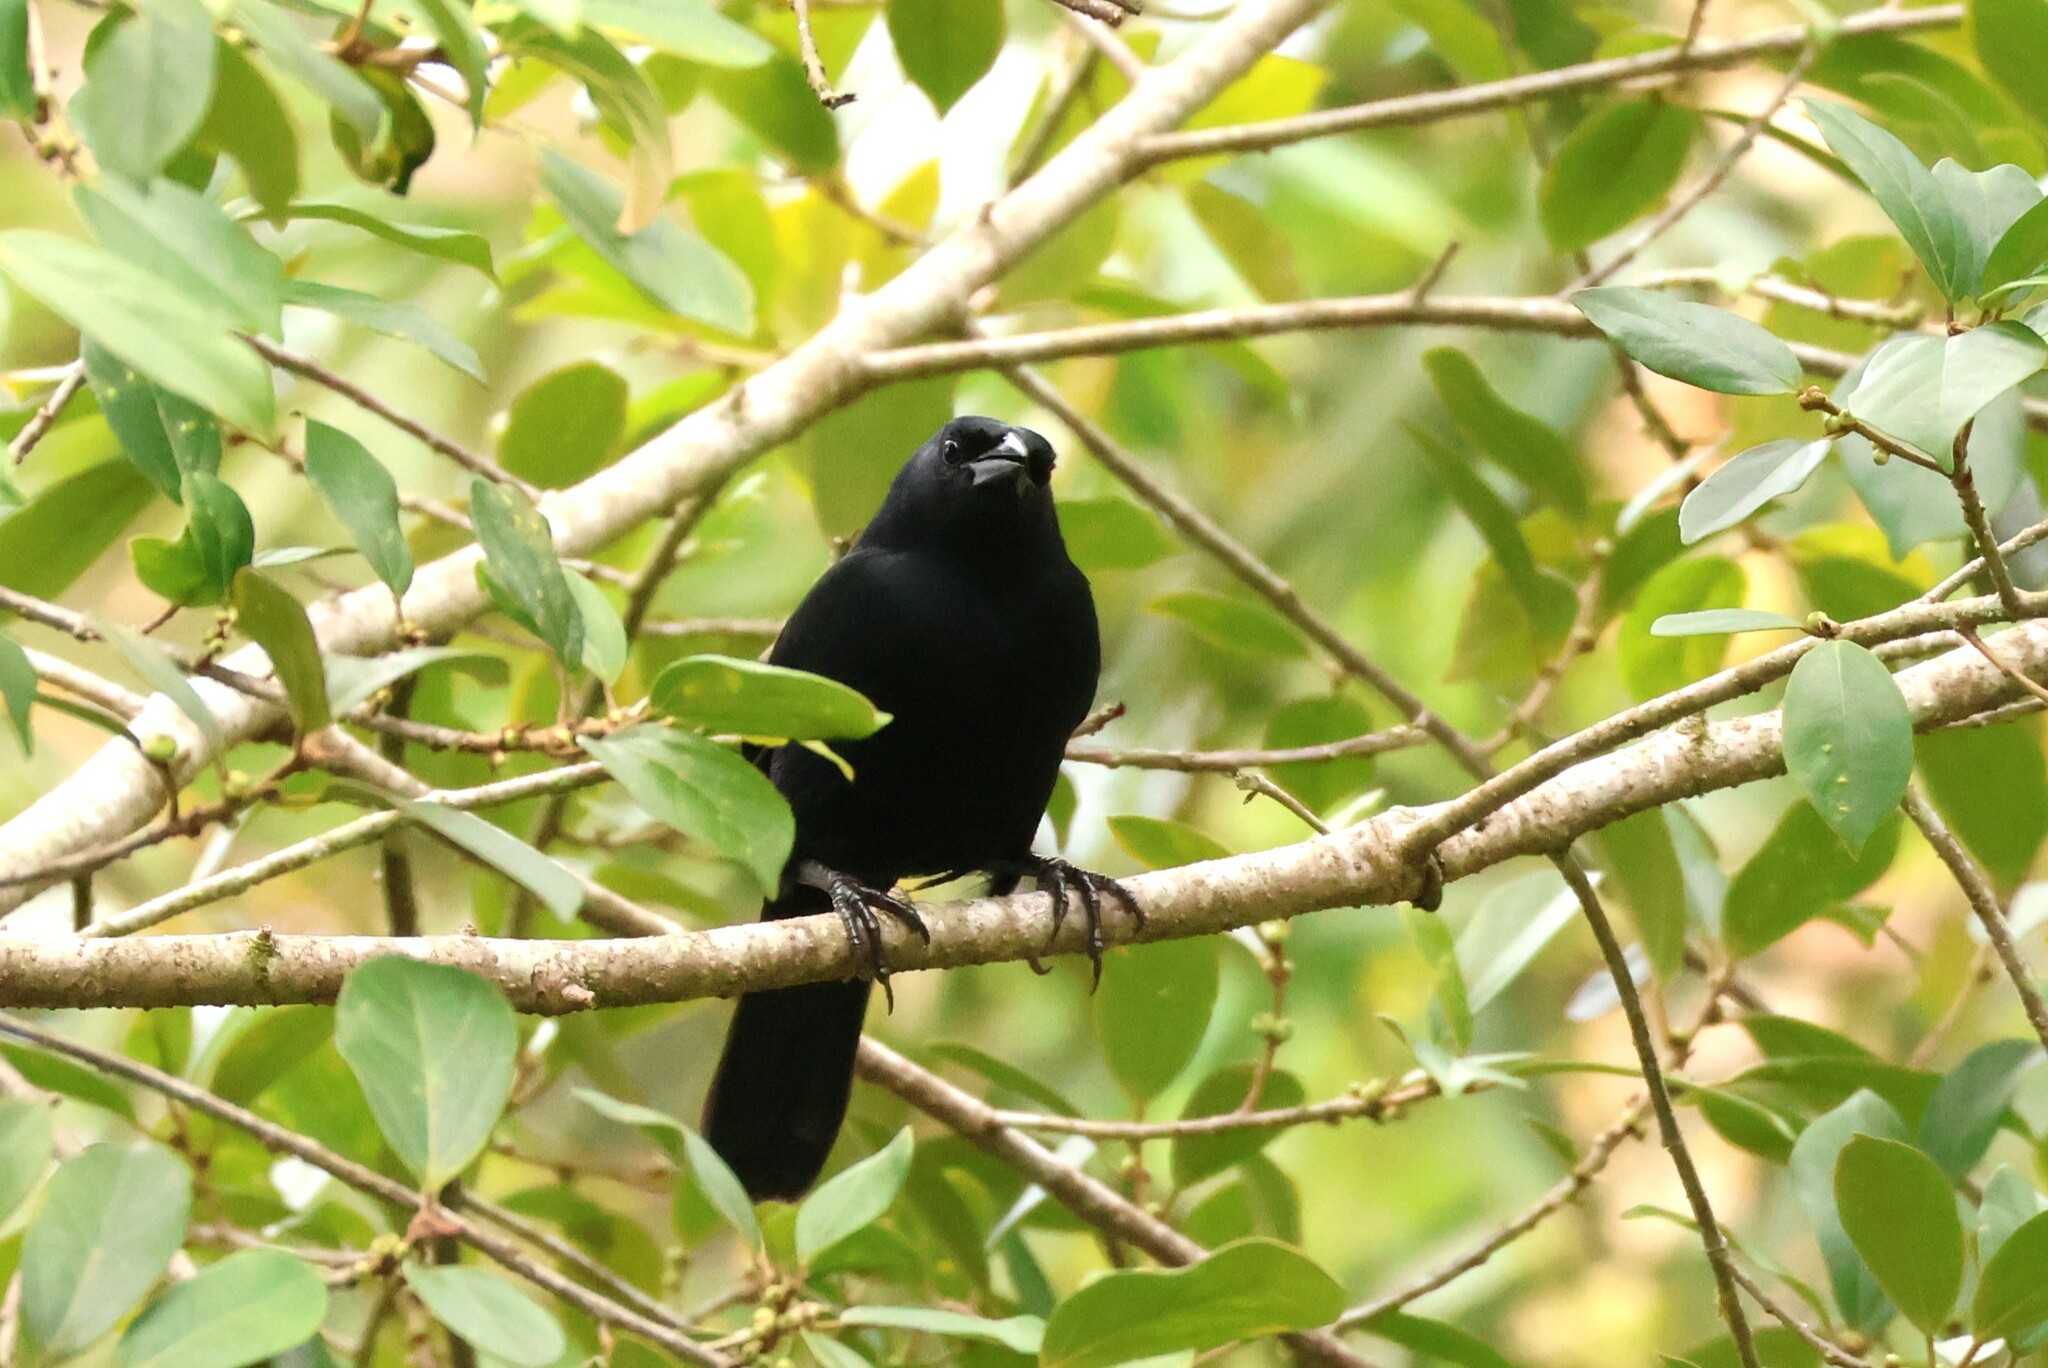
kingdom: Animalia
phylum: Chordata
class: Aves
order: Passeriformes
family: Icteridae
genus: Dives
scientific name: Dives dives
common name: Melodious blackbird
